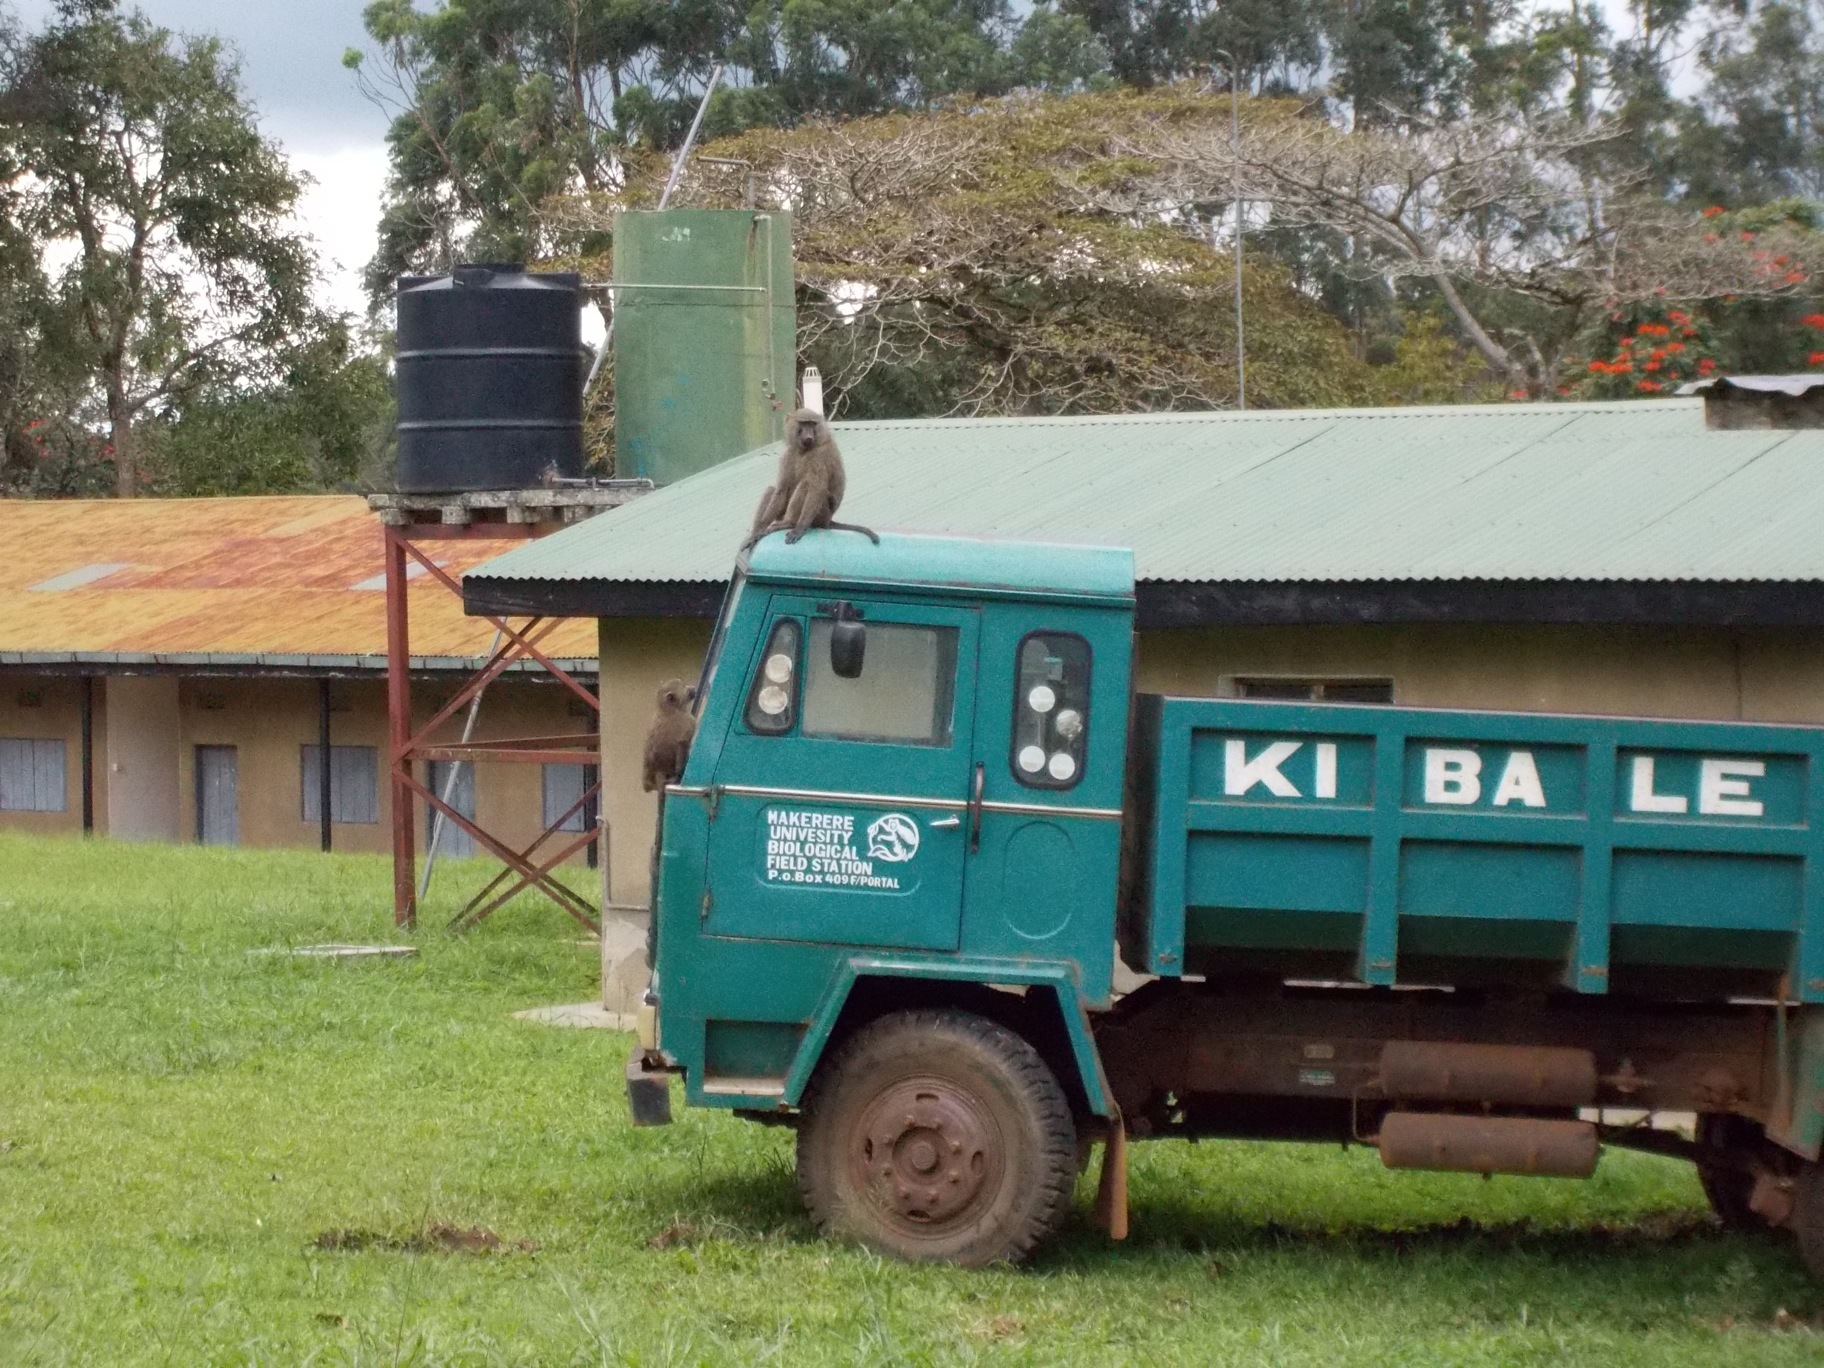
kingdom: Animalia
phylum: Chordata
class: Mammalia
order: Primates
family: Cercopithecidae
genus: Papio
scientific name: Papio anubis
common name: Olive baboon
